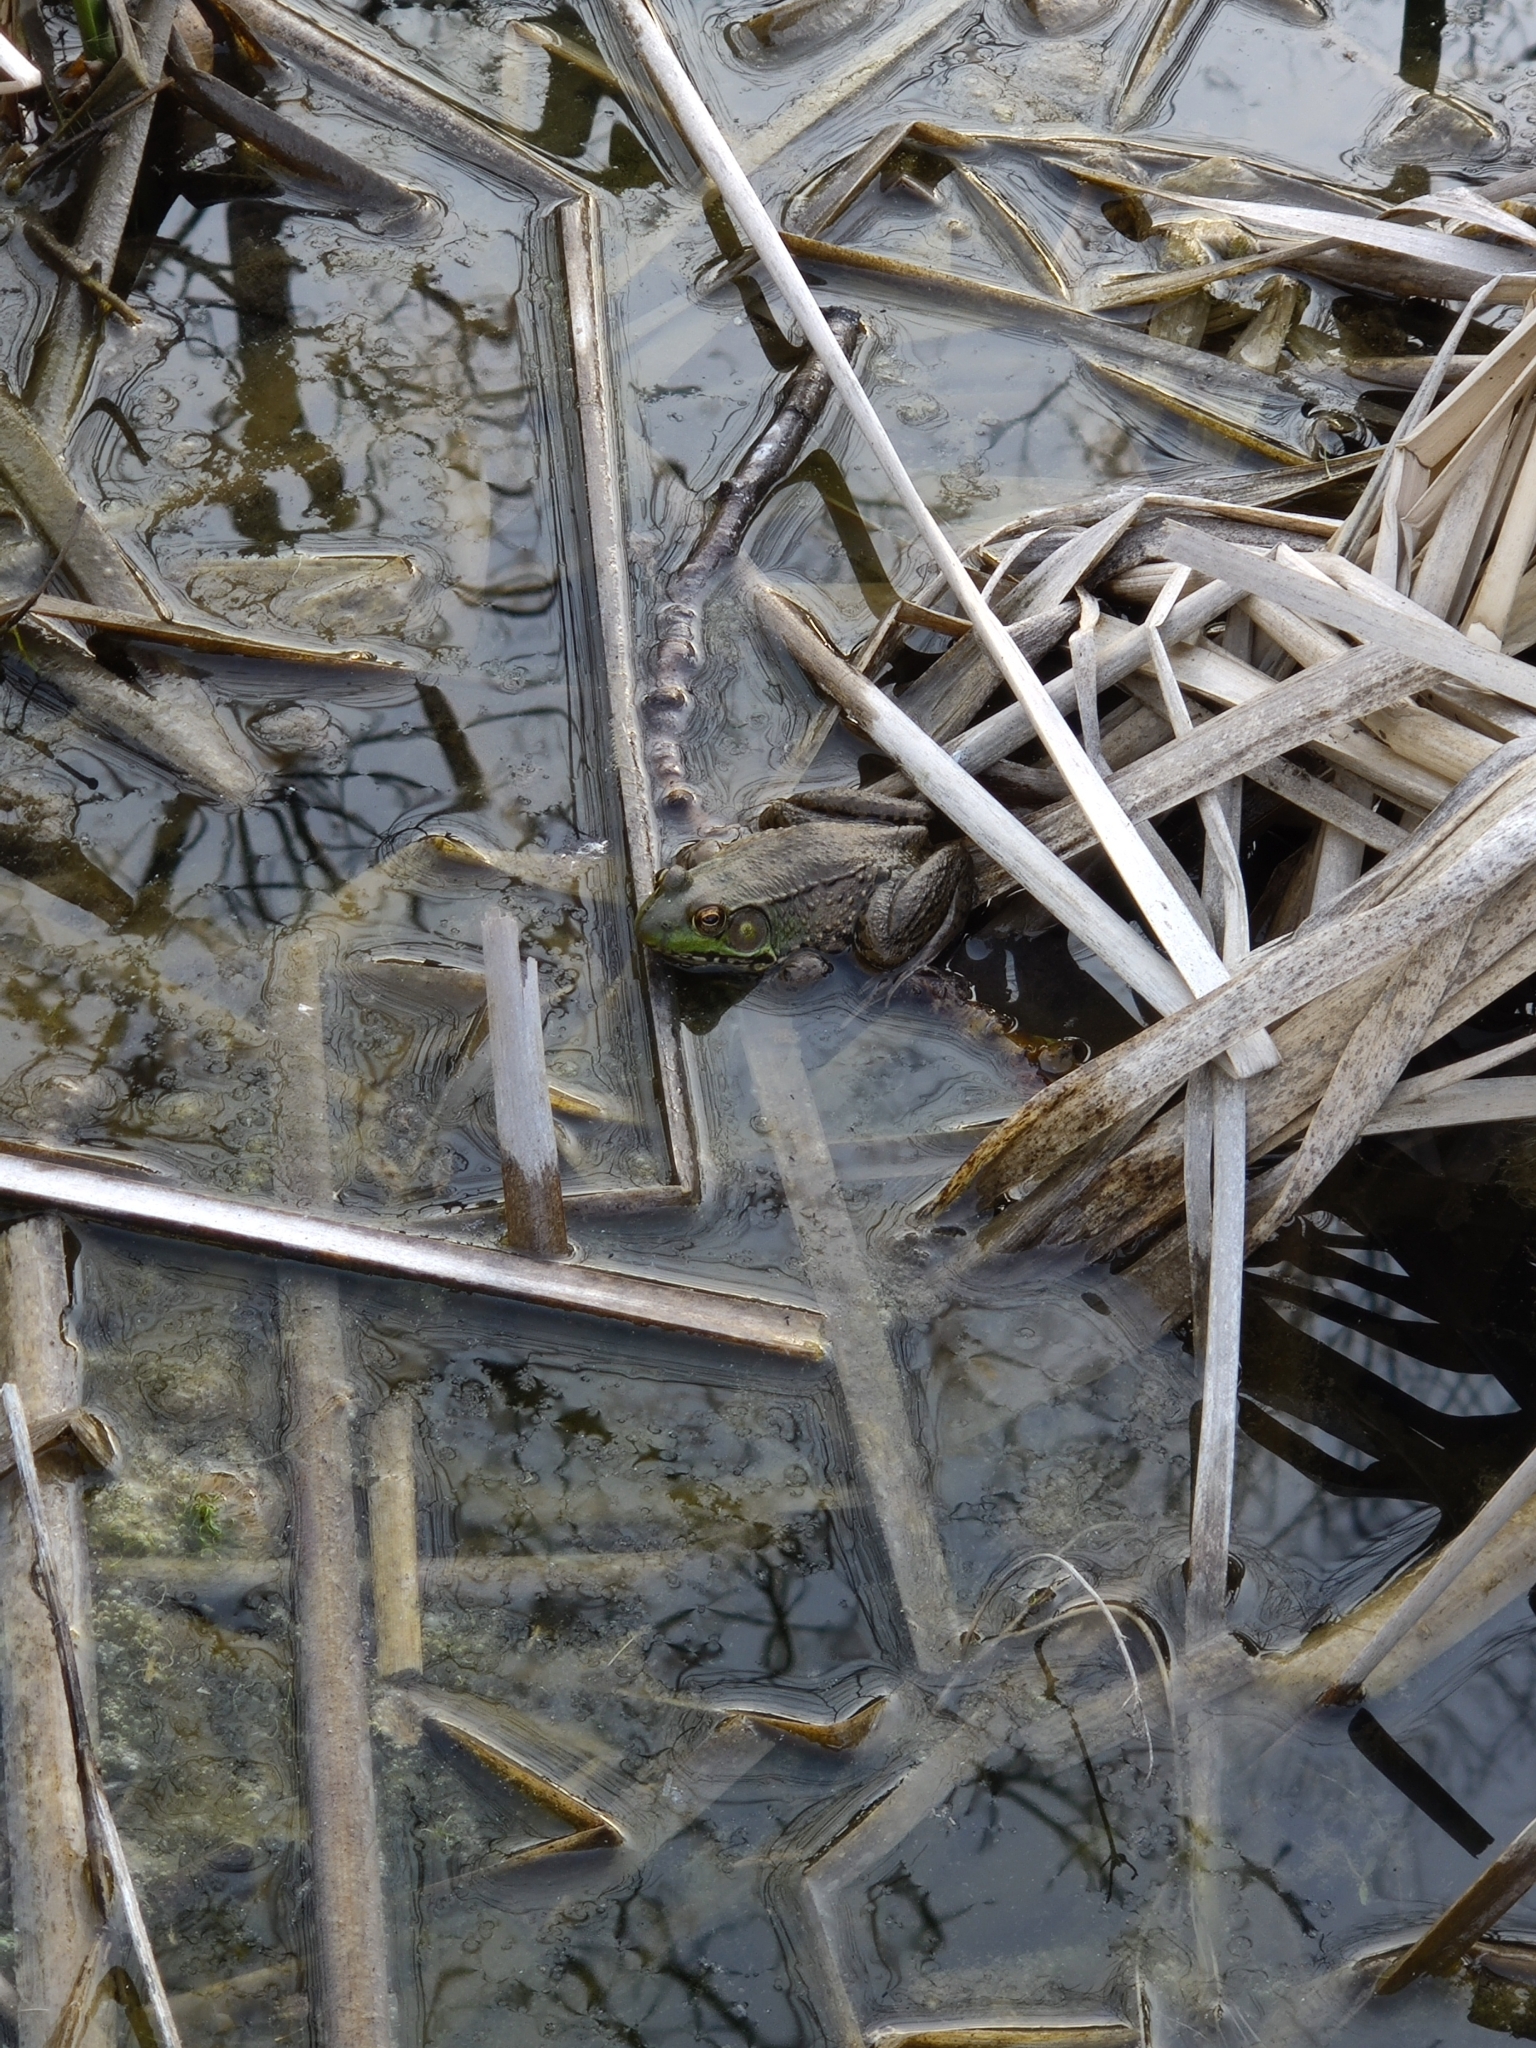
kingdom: Animalia
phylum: Chordata
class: Amphibia
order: Anura
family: Ranidae
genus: Lithobates
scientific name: Lithobates clamitans
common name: Green frog
